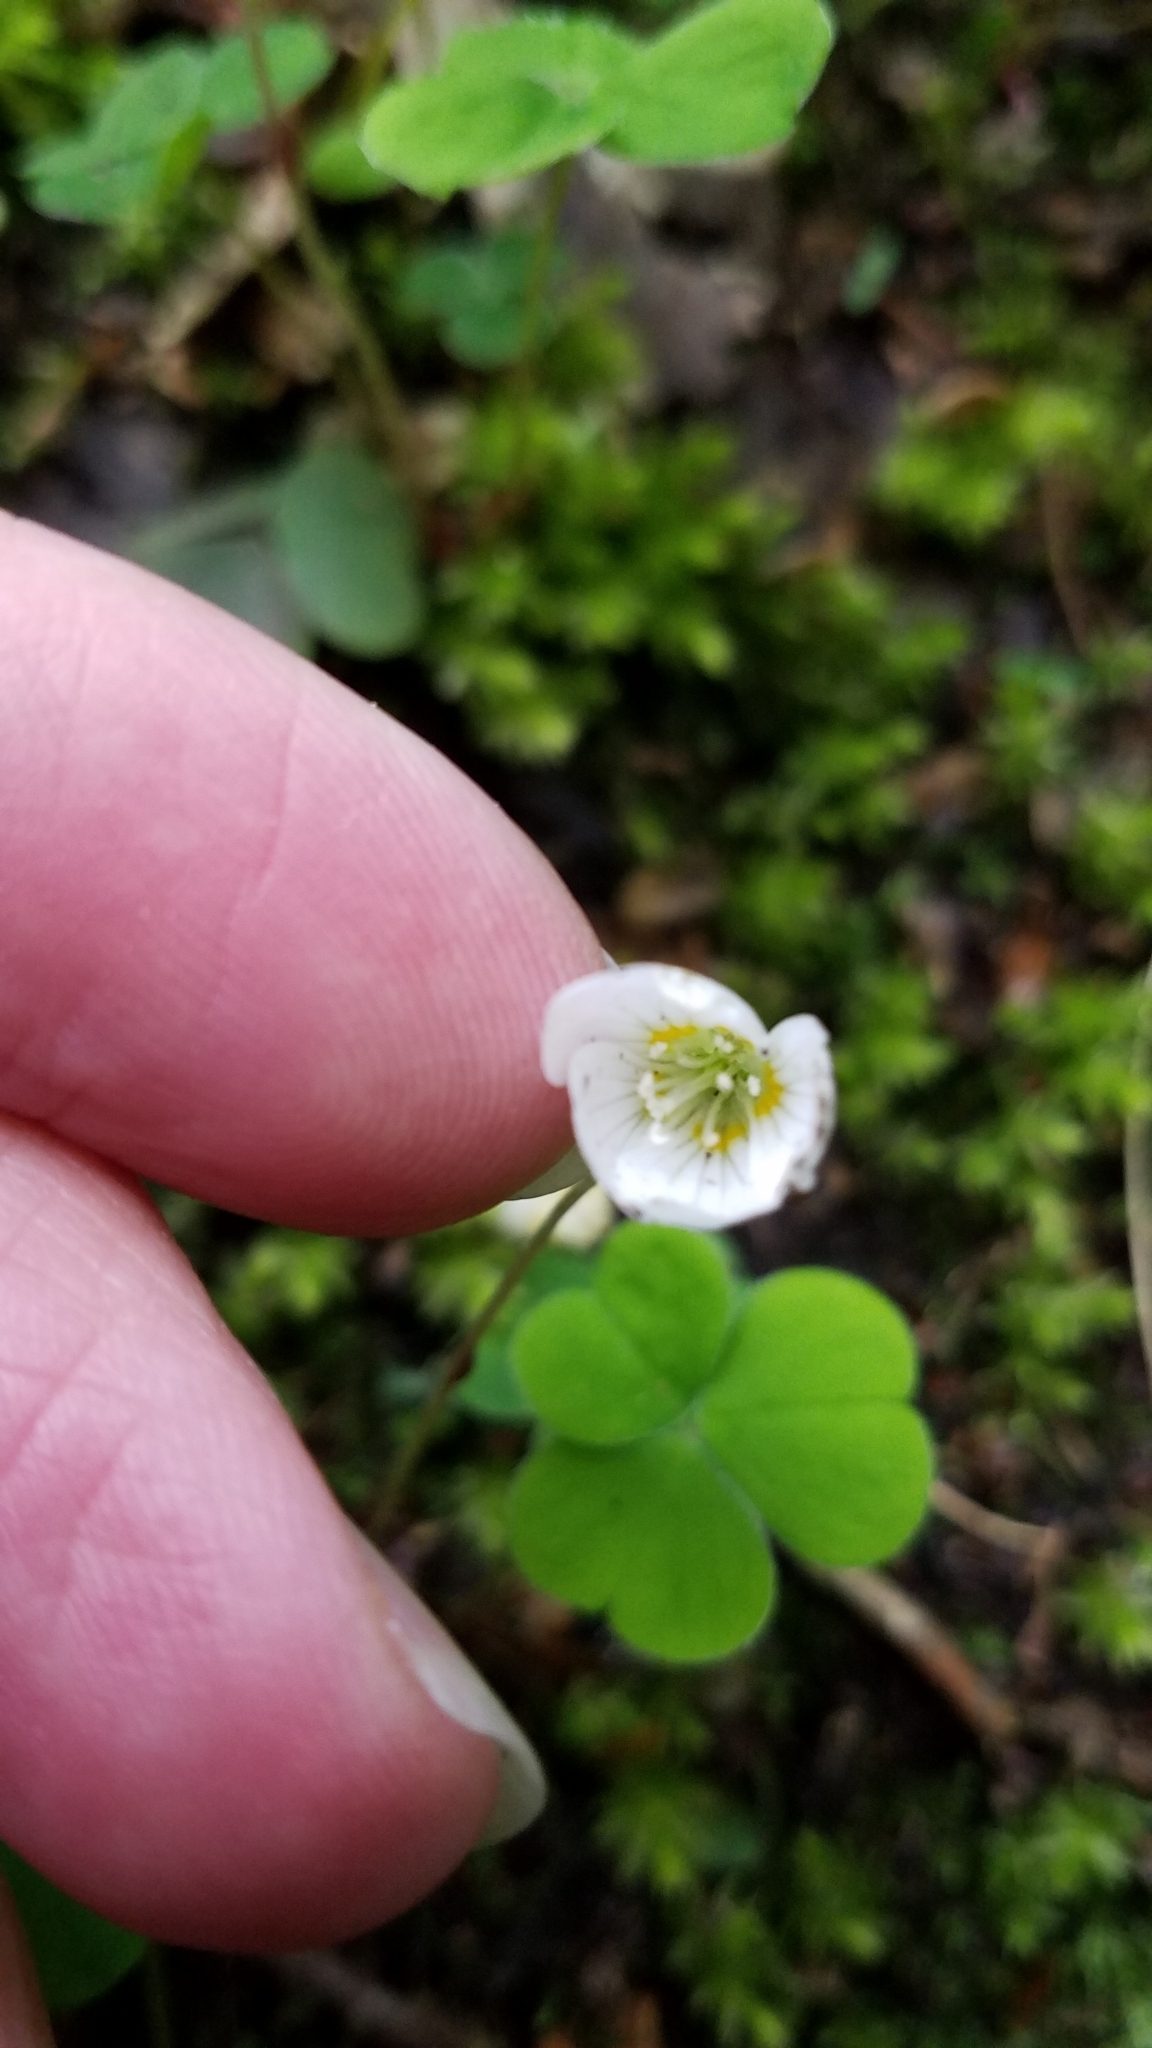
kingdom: Plantae
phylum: Tracheophyta
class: Magnoliopsida
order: Oxalidales
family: Oxalidaceae
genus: Oxalis
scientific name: Oxalis acetosella
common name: Wood-sorrel
